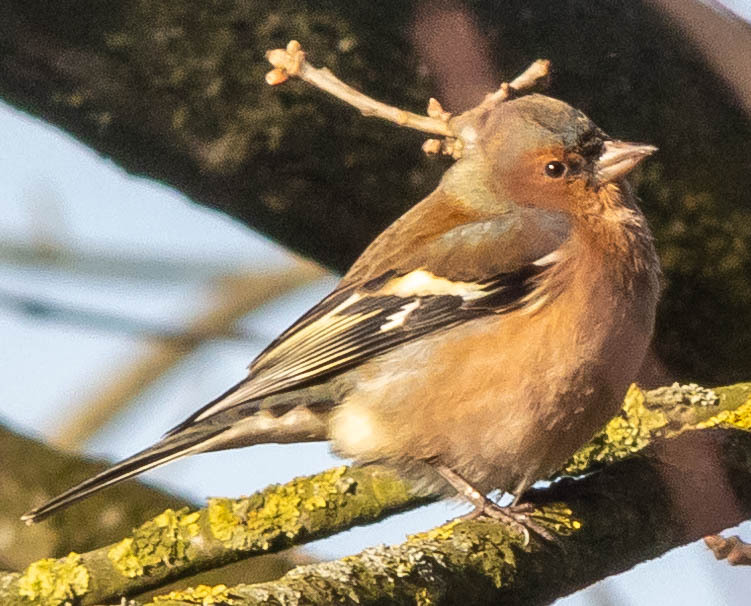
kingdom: Animalia
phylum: Chordata
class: Aves
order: Passeriformes
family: Fringillidae
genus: Fringilla
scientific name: Fringilla coelebs
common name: Common chaffinch
